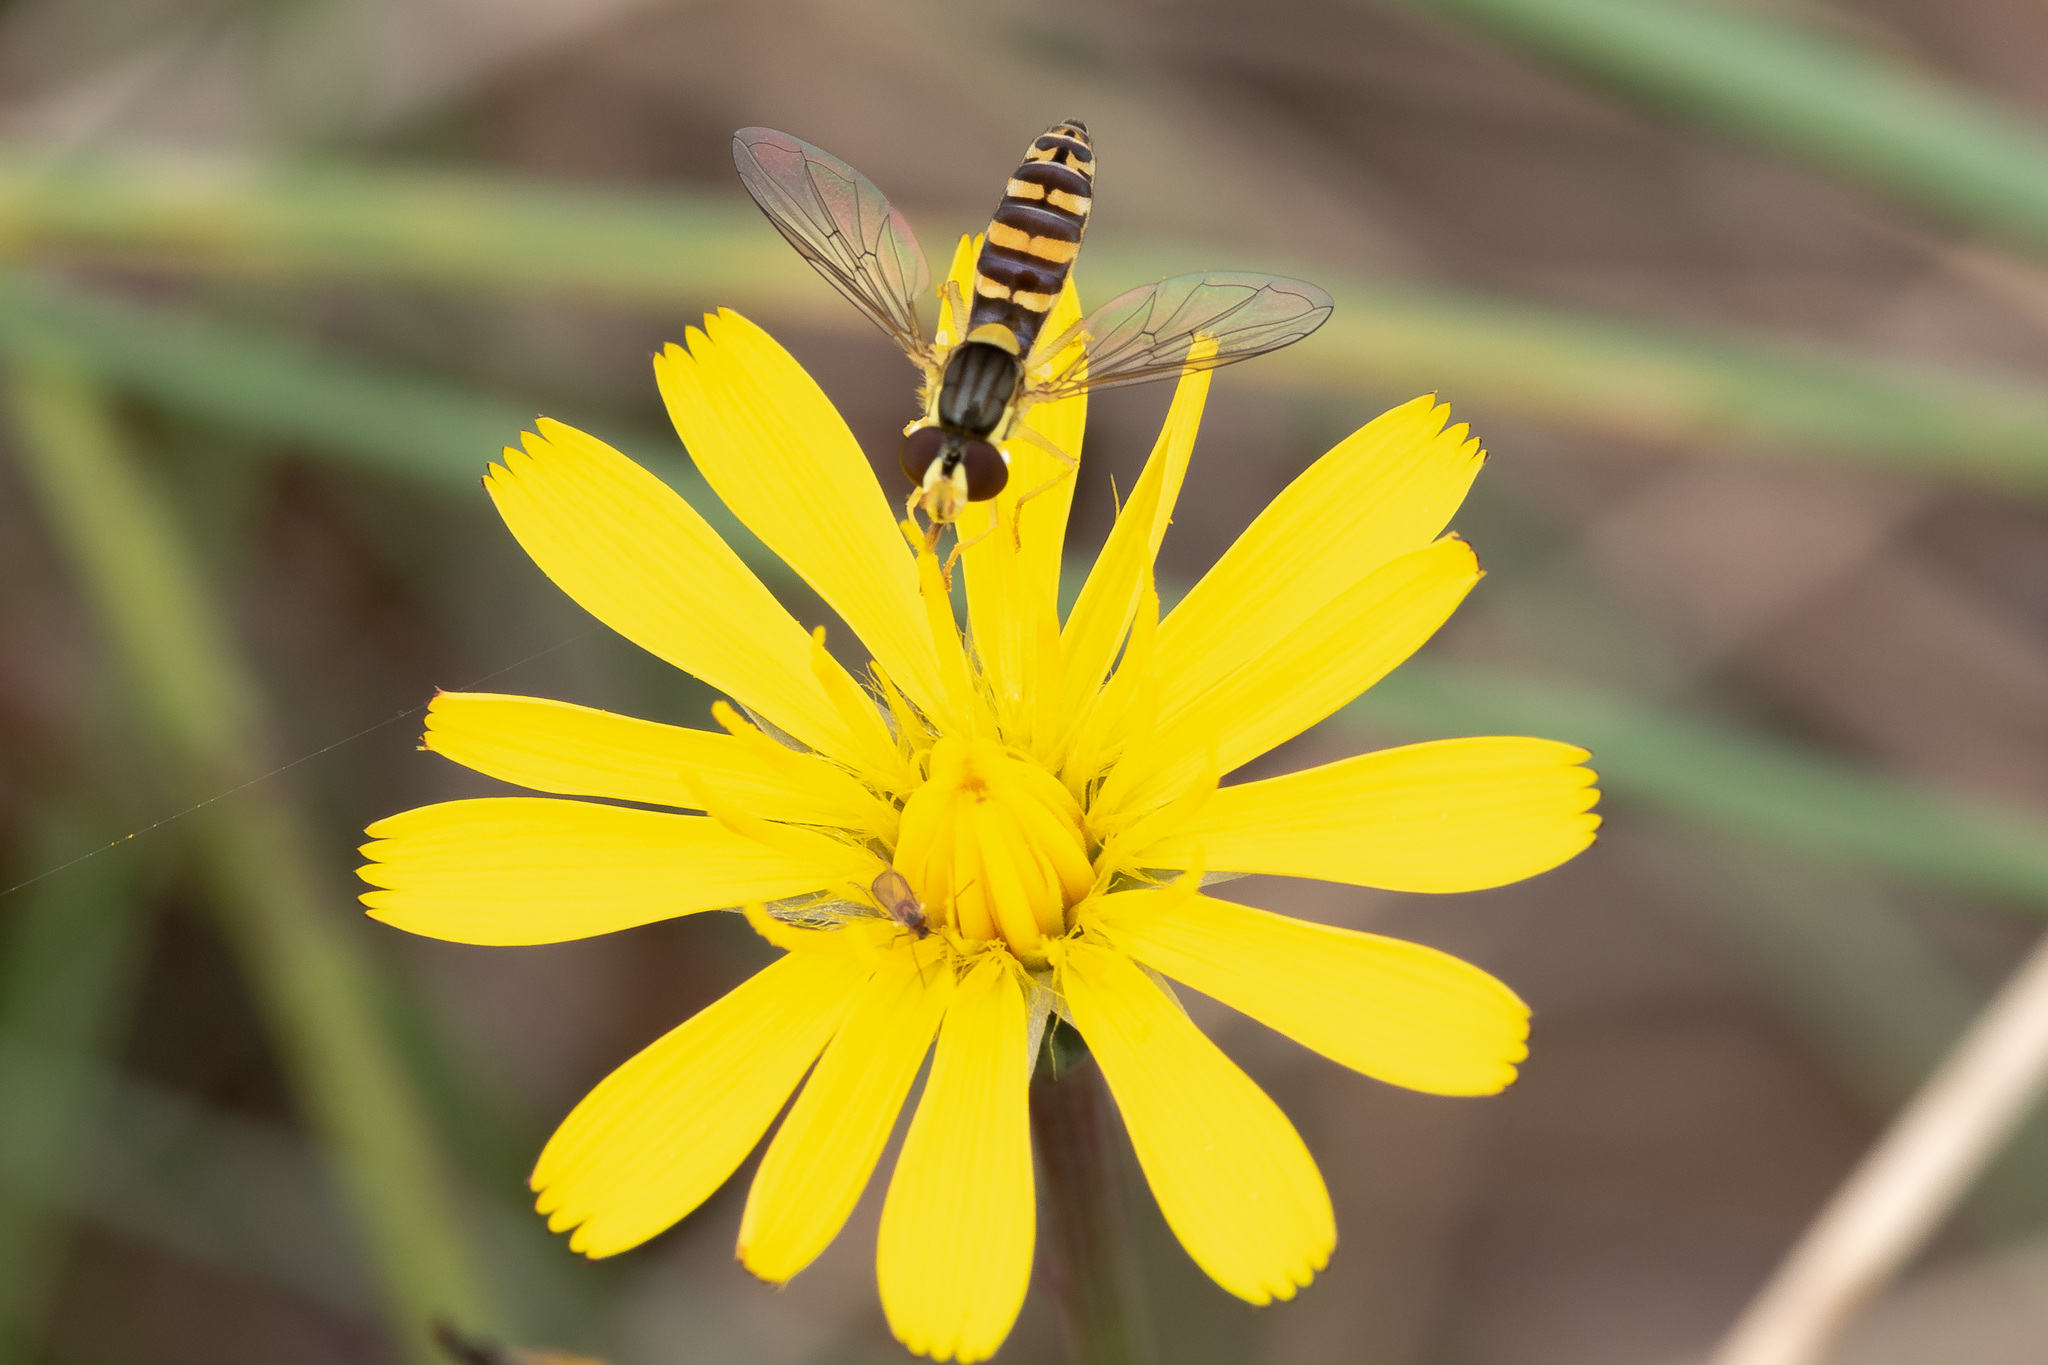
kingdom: Animalia
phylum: Arthropoda
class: Insecta
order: Diptera
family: Syrphidae
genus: Sphaerophoria
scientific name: Sphaerophoria
